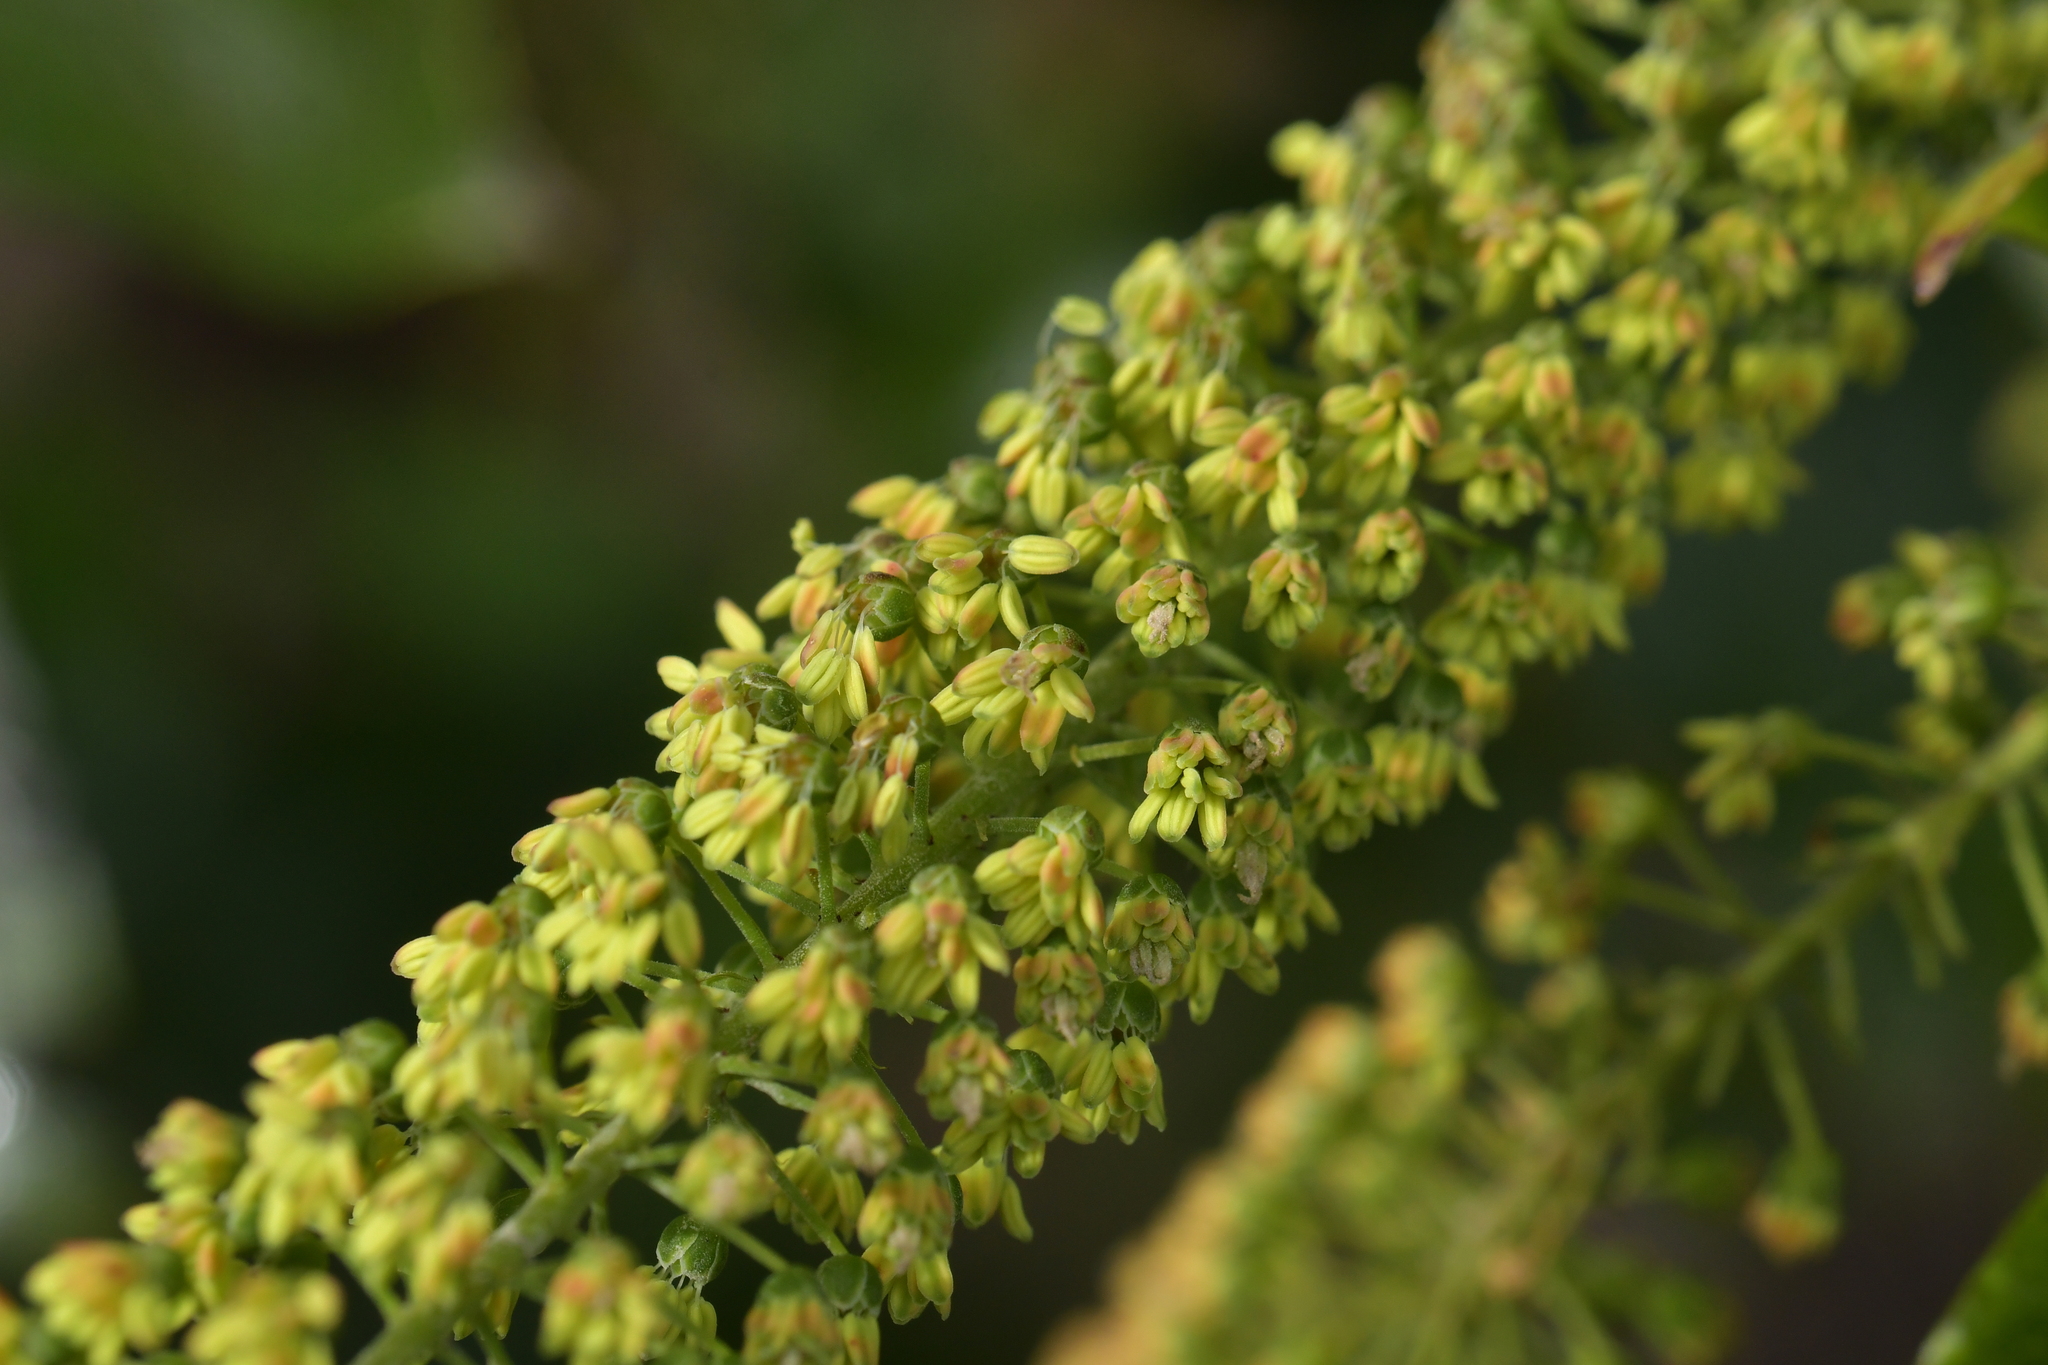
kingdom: Plantae
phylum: Tracheophyta
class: Magnoliopsida
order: Cucurbitales
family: Coriariaceae
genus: Coriaria
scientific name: Coriaria arborea
